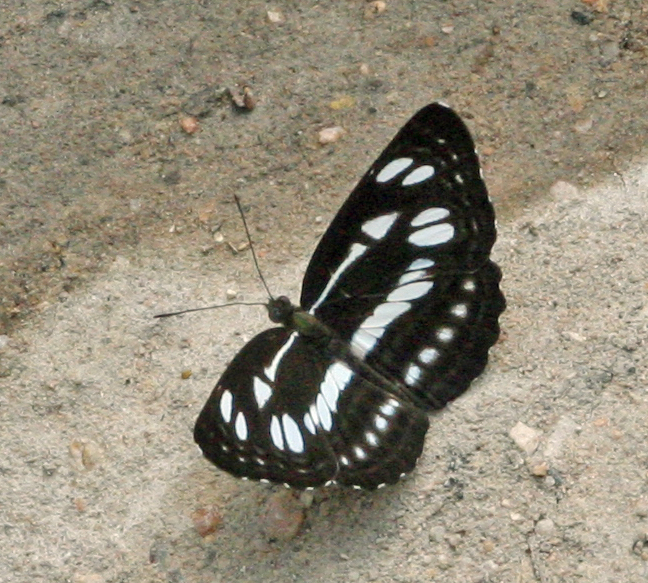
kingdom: Animalia
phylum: Arthropoda
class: Insecta
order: Lepidoptera
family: Nymphalidae
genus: Phaedyma
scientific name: Phaedyma columella
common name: Short banded sailer
